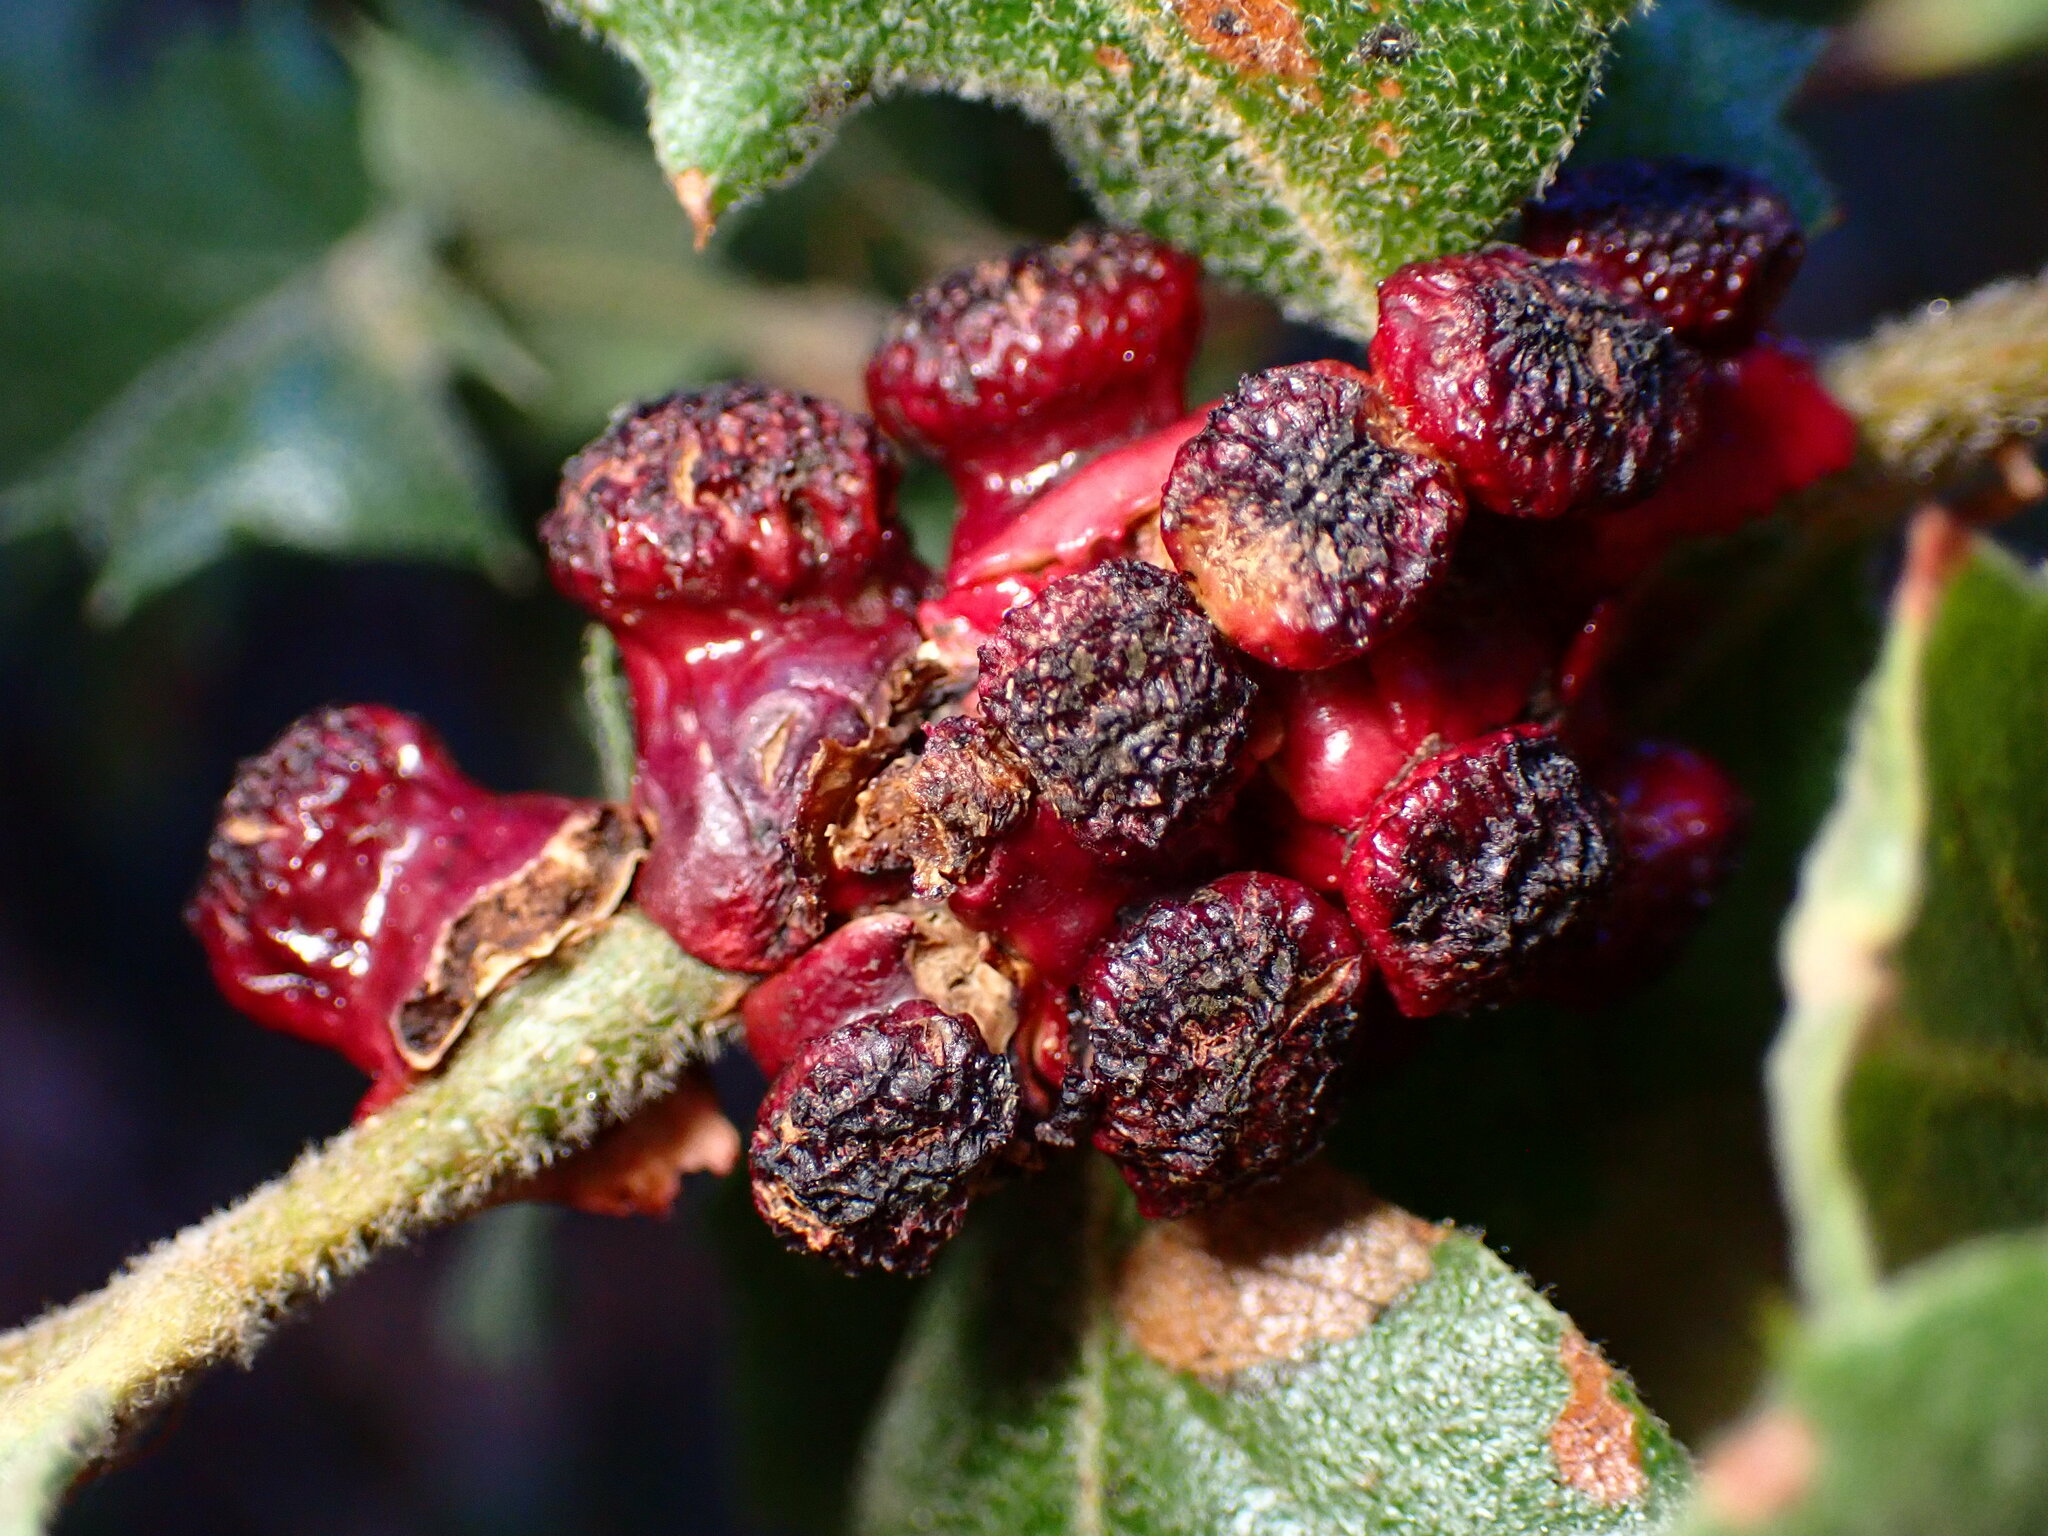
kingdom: Animalia
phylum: Arthropoda
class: Insecta
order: Hymenoptera
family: Cynipidae
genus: Disholcaspis
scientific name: Disholcaspis prehensa
